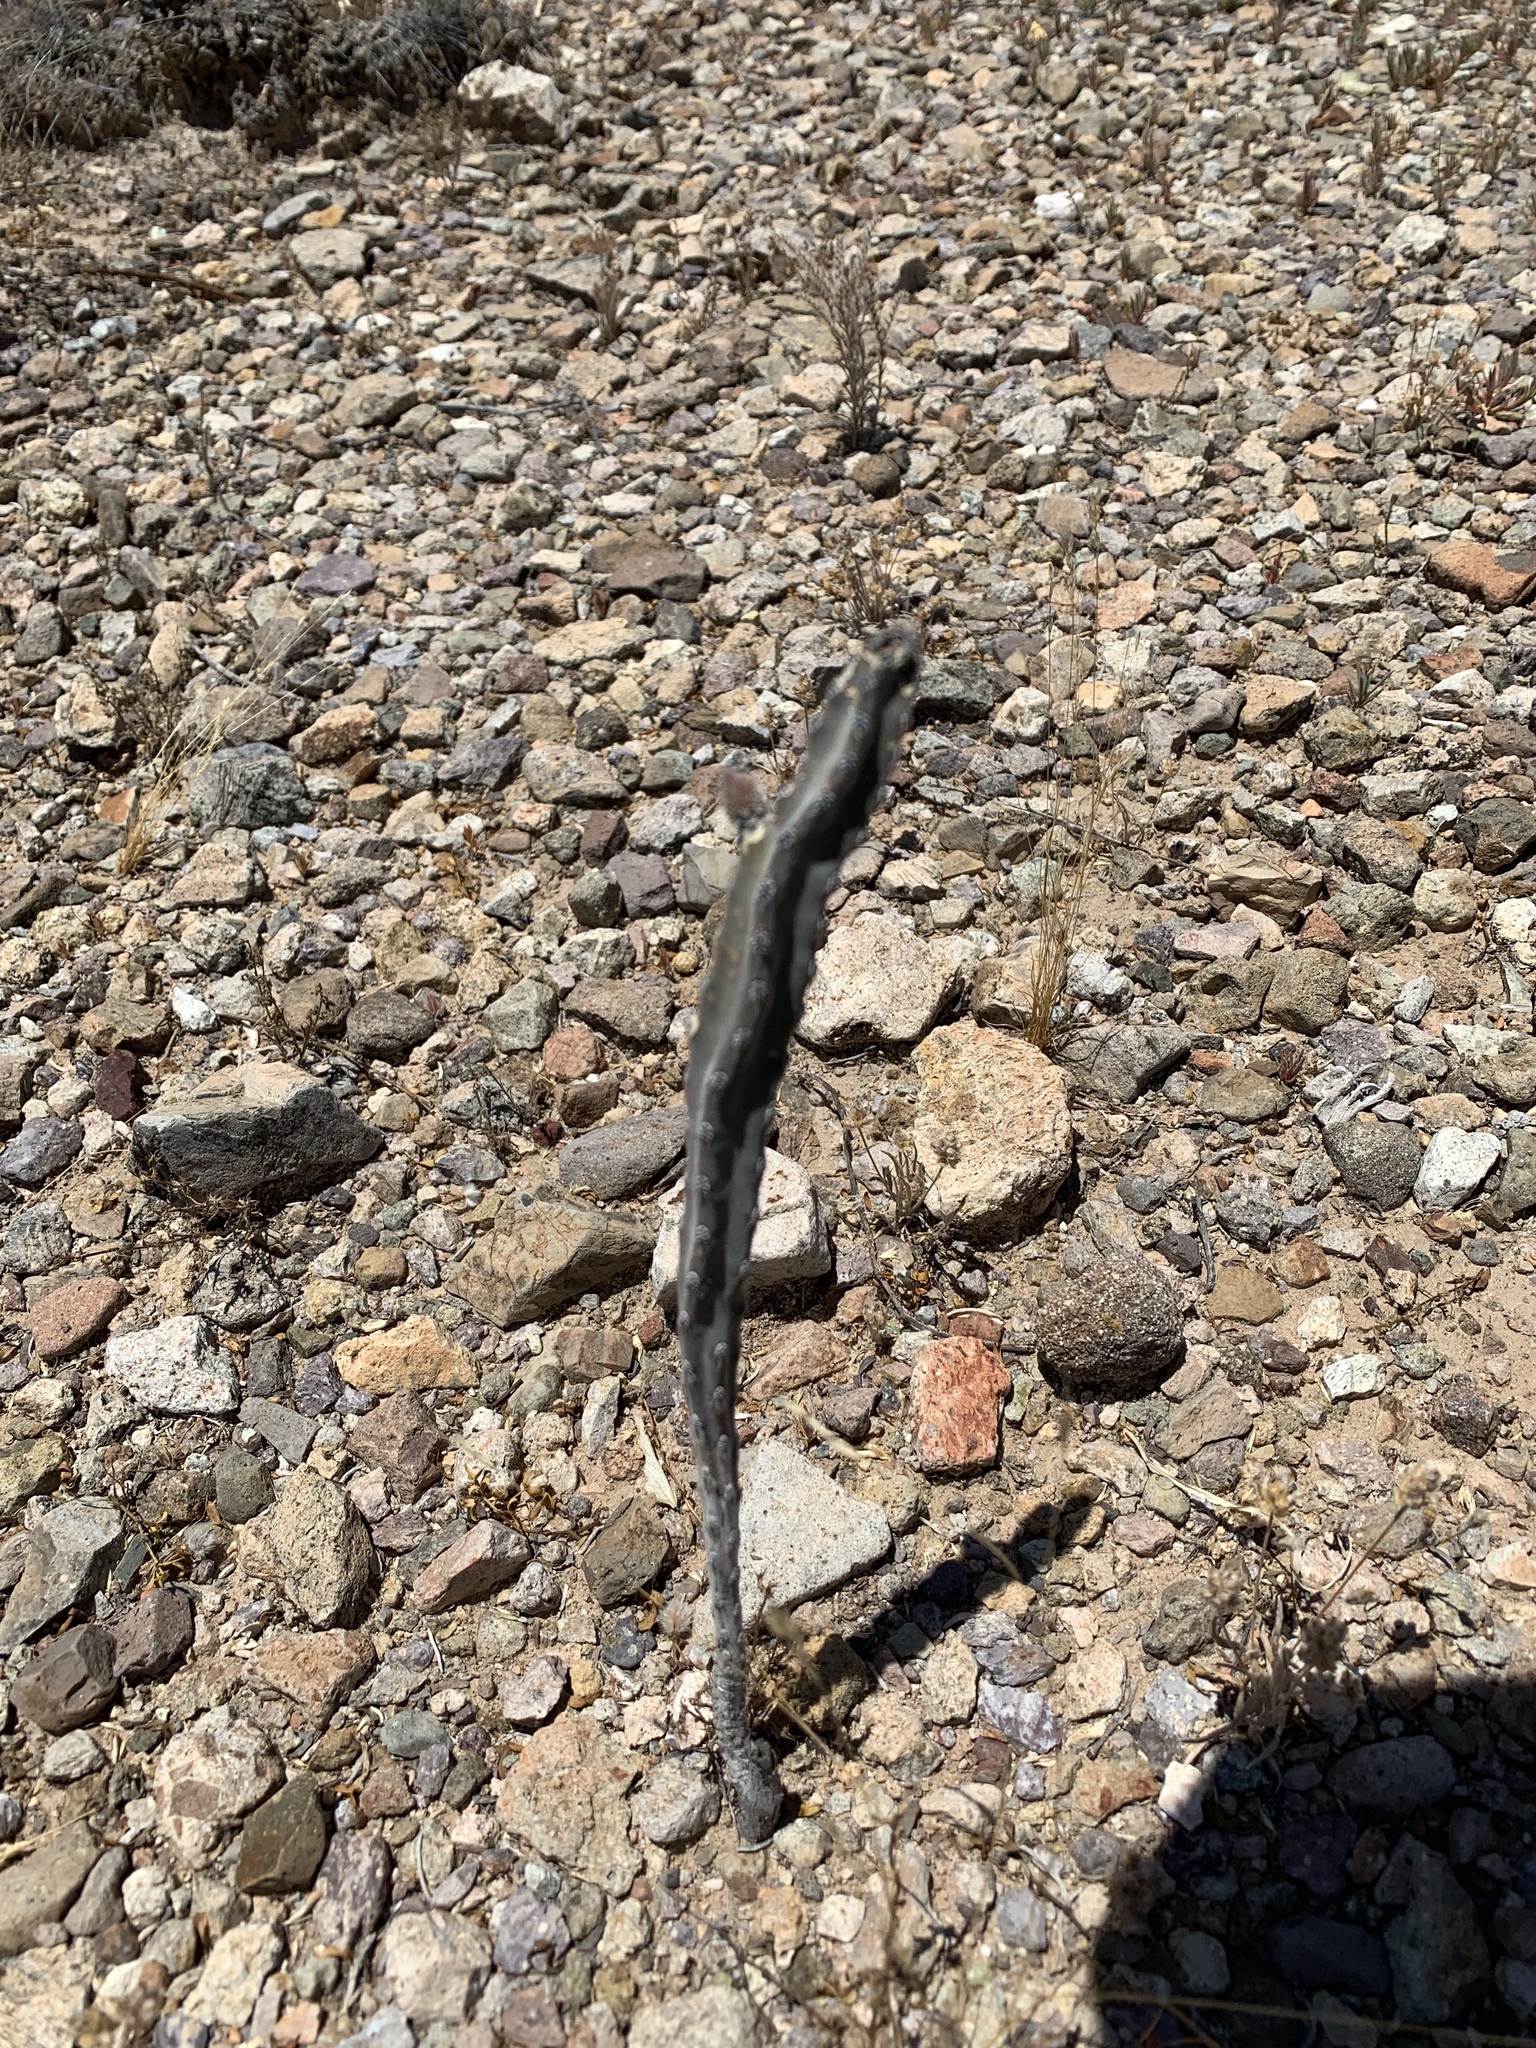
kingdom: Plantae
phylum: Tracheophyta
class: Magnoliopsida
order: Caryophyllales
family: Cactaceae
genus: Peniocereus
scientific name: Peniocereus greggii
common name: Desert night-blooming cereus
